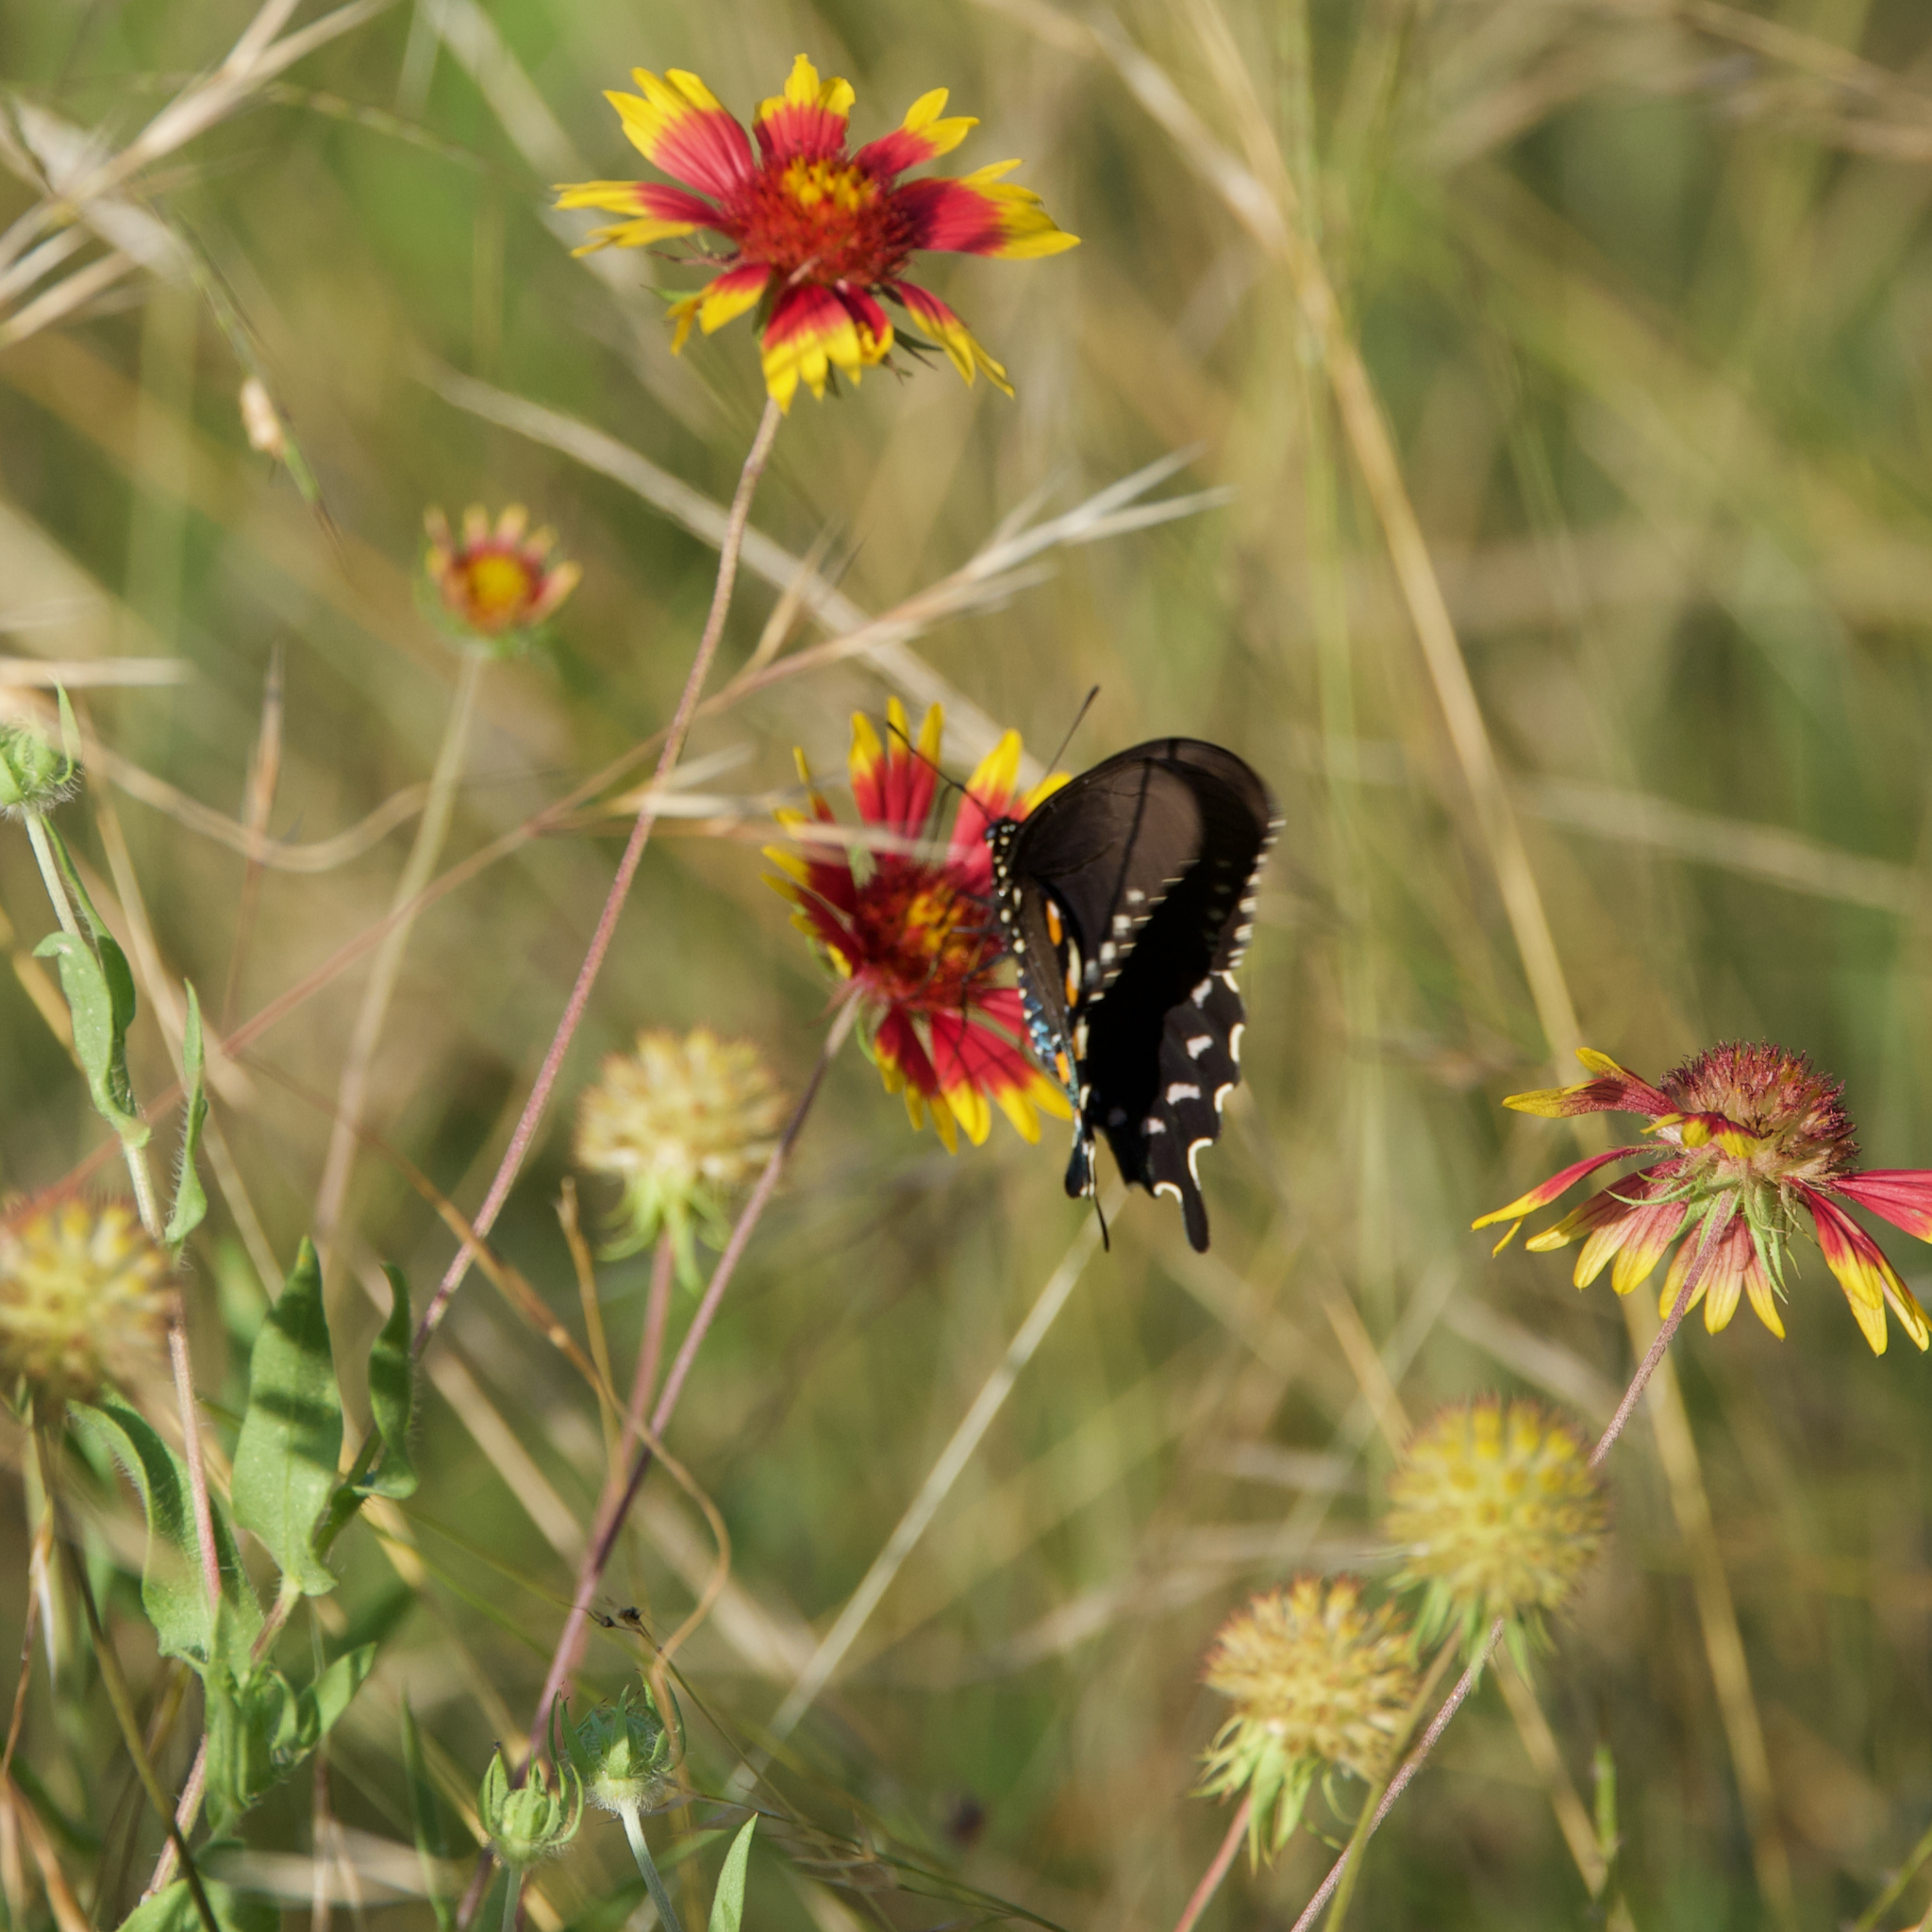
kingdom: Animalia
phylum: Arthropoda
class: Insecta
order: Lepidoptera
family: Papilionidae
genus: Battus
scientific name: Battus philenor
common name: Pipevine swallowtail
